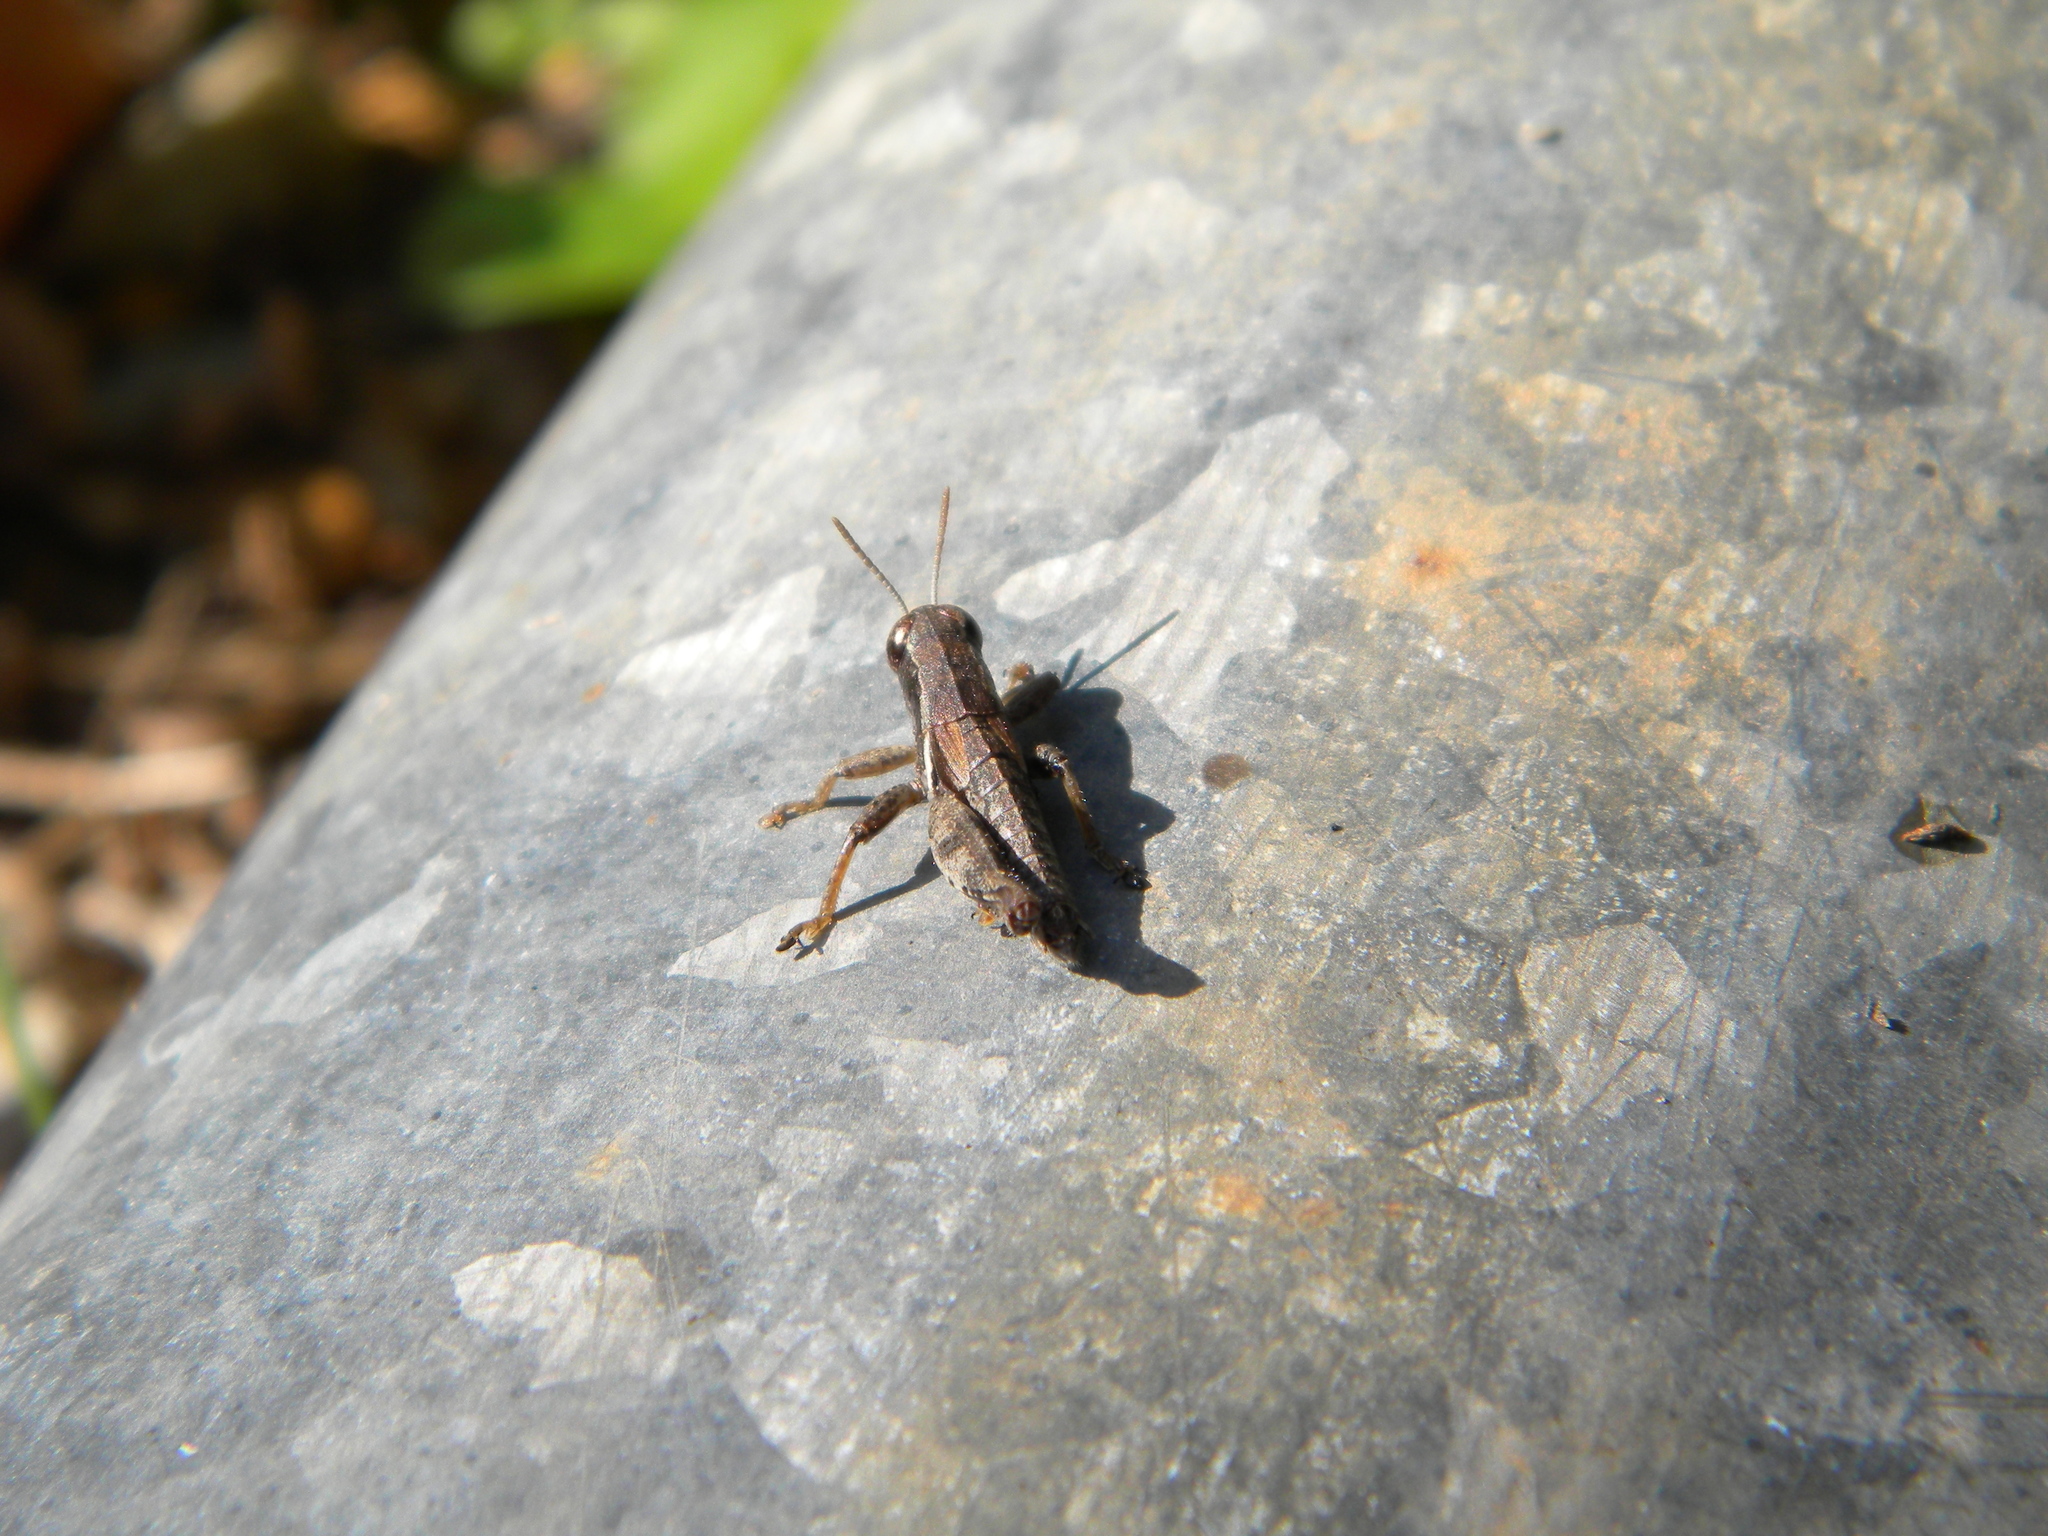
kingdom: Animalia
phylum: Arthropoda
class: Insecta
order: Orthoptera
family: Acrididae
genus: Pezotettix
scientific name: Pezotettix giornae
